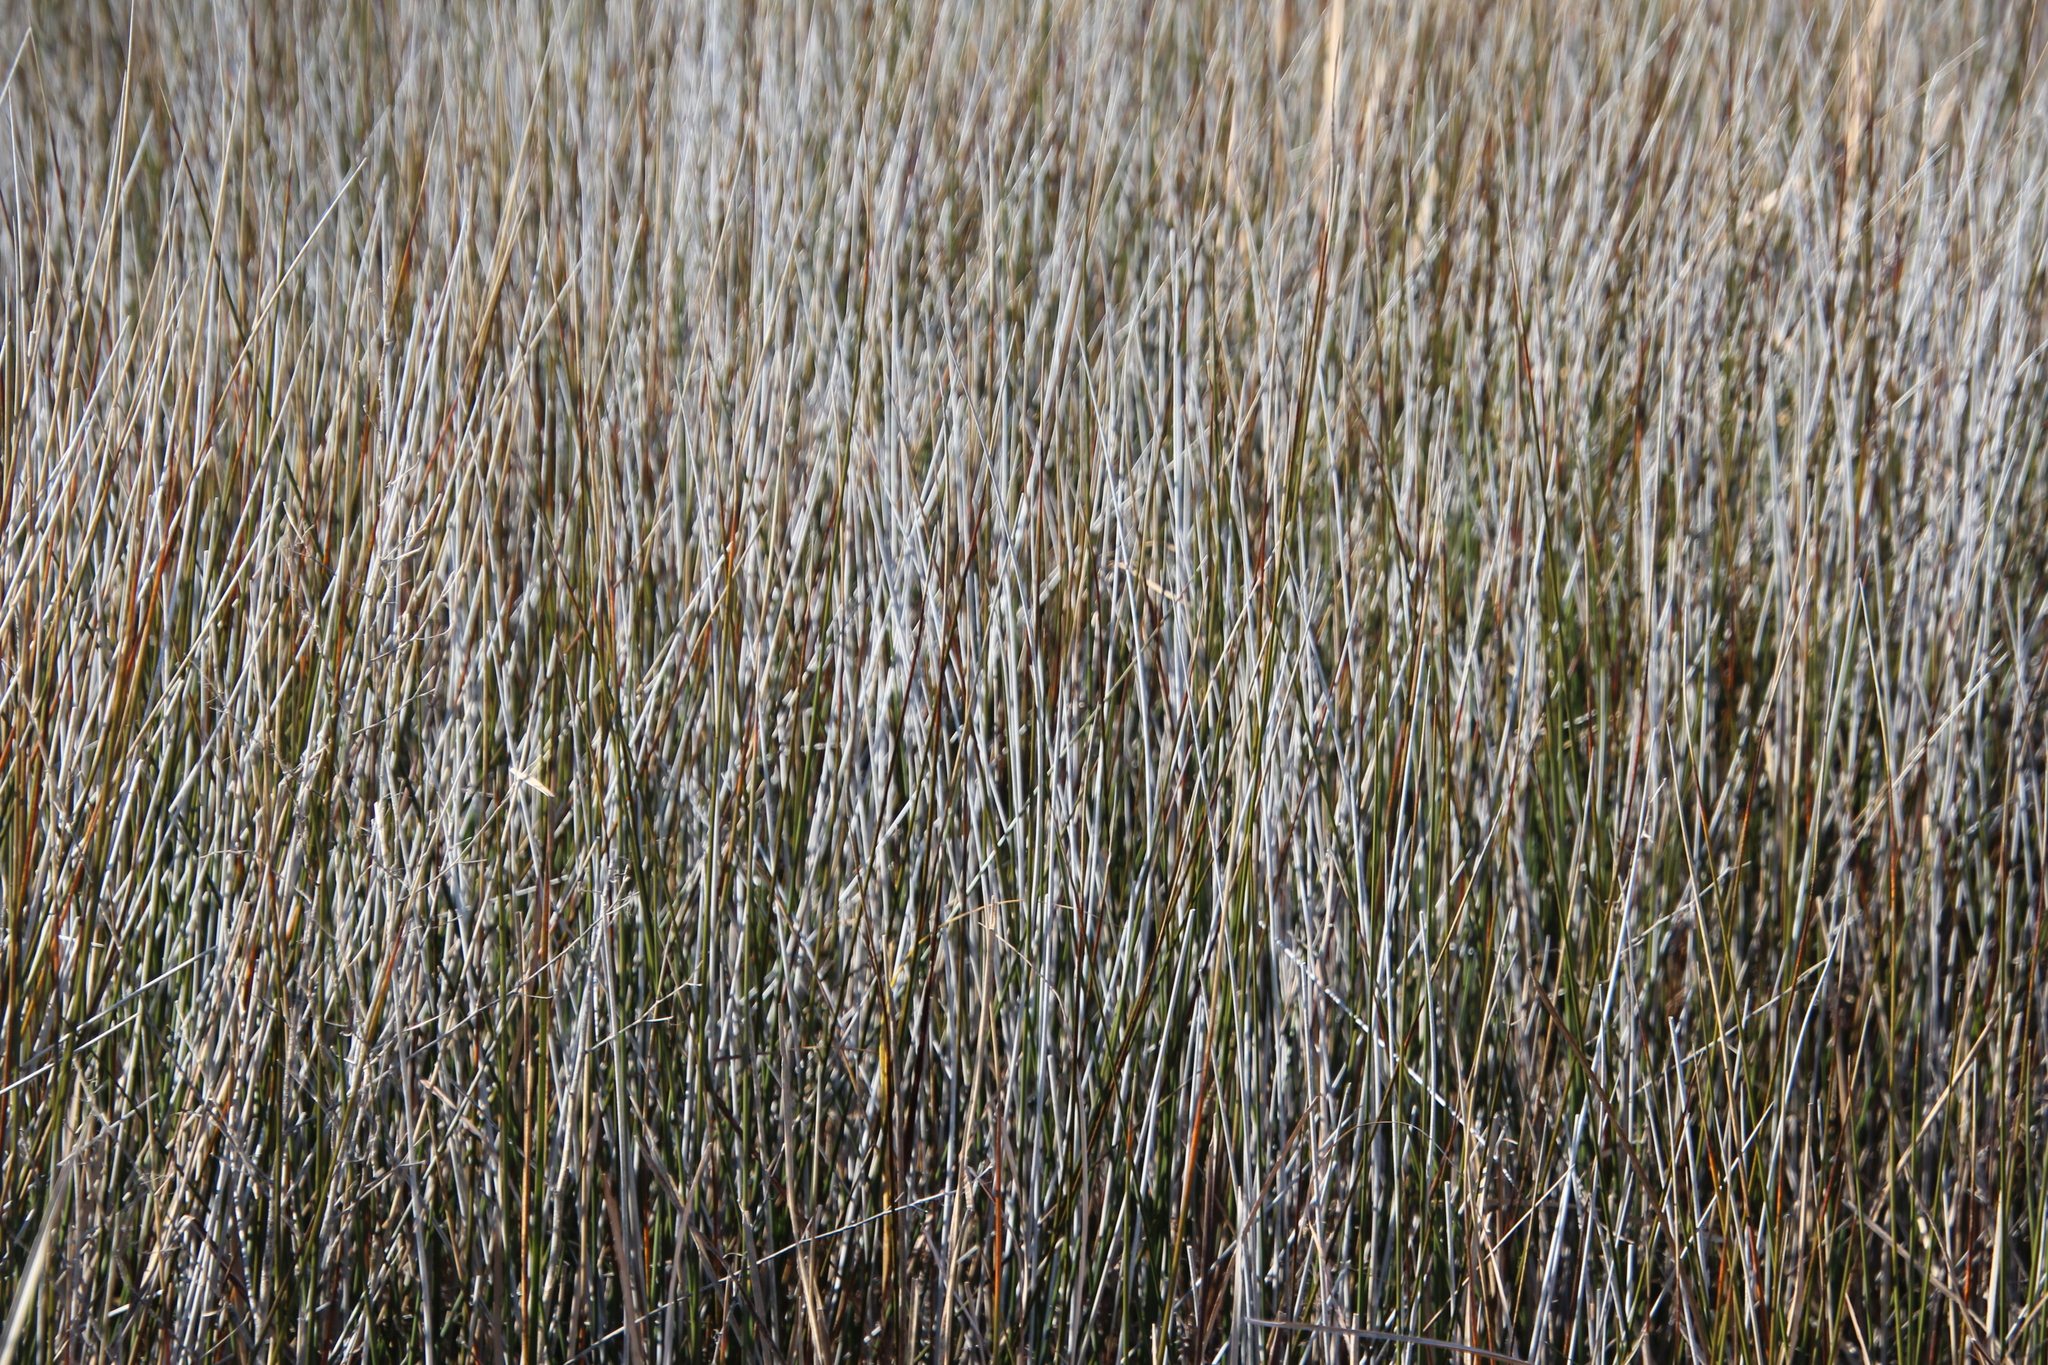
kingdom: Plantae
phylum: Tracheophyta
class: Liliopsida
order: Poales
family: Juncaceae
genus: Juncus
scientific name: Juncus roemerianus
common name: Roemer's rush
